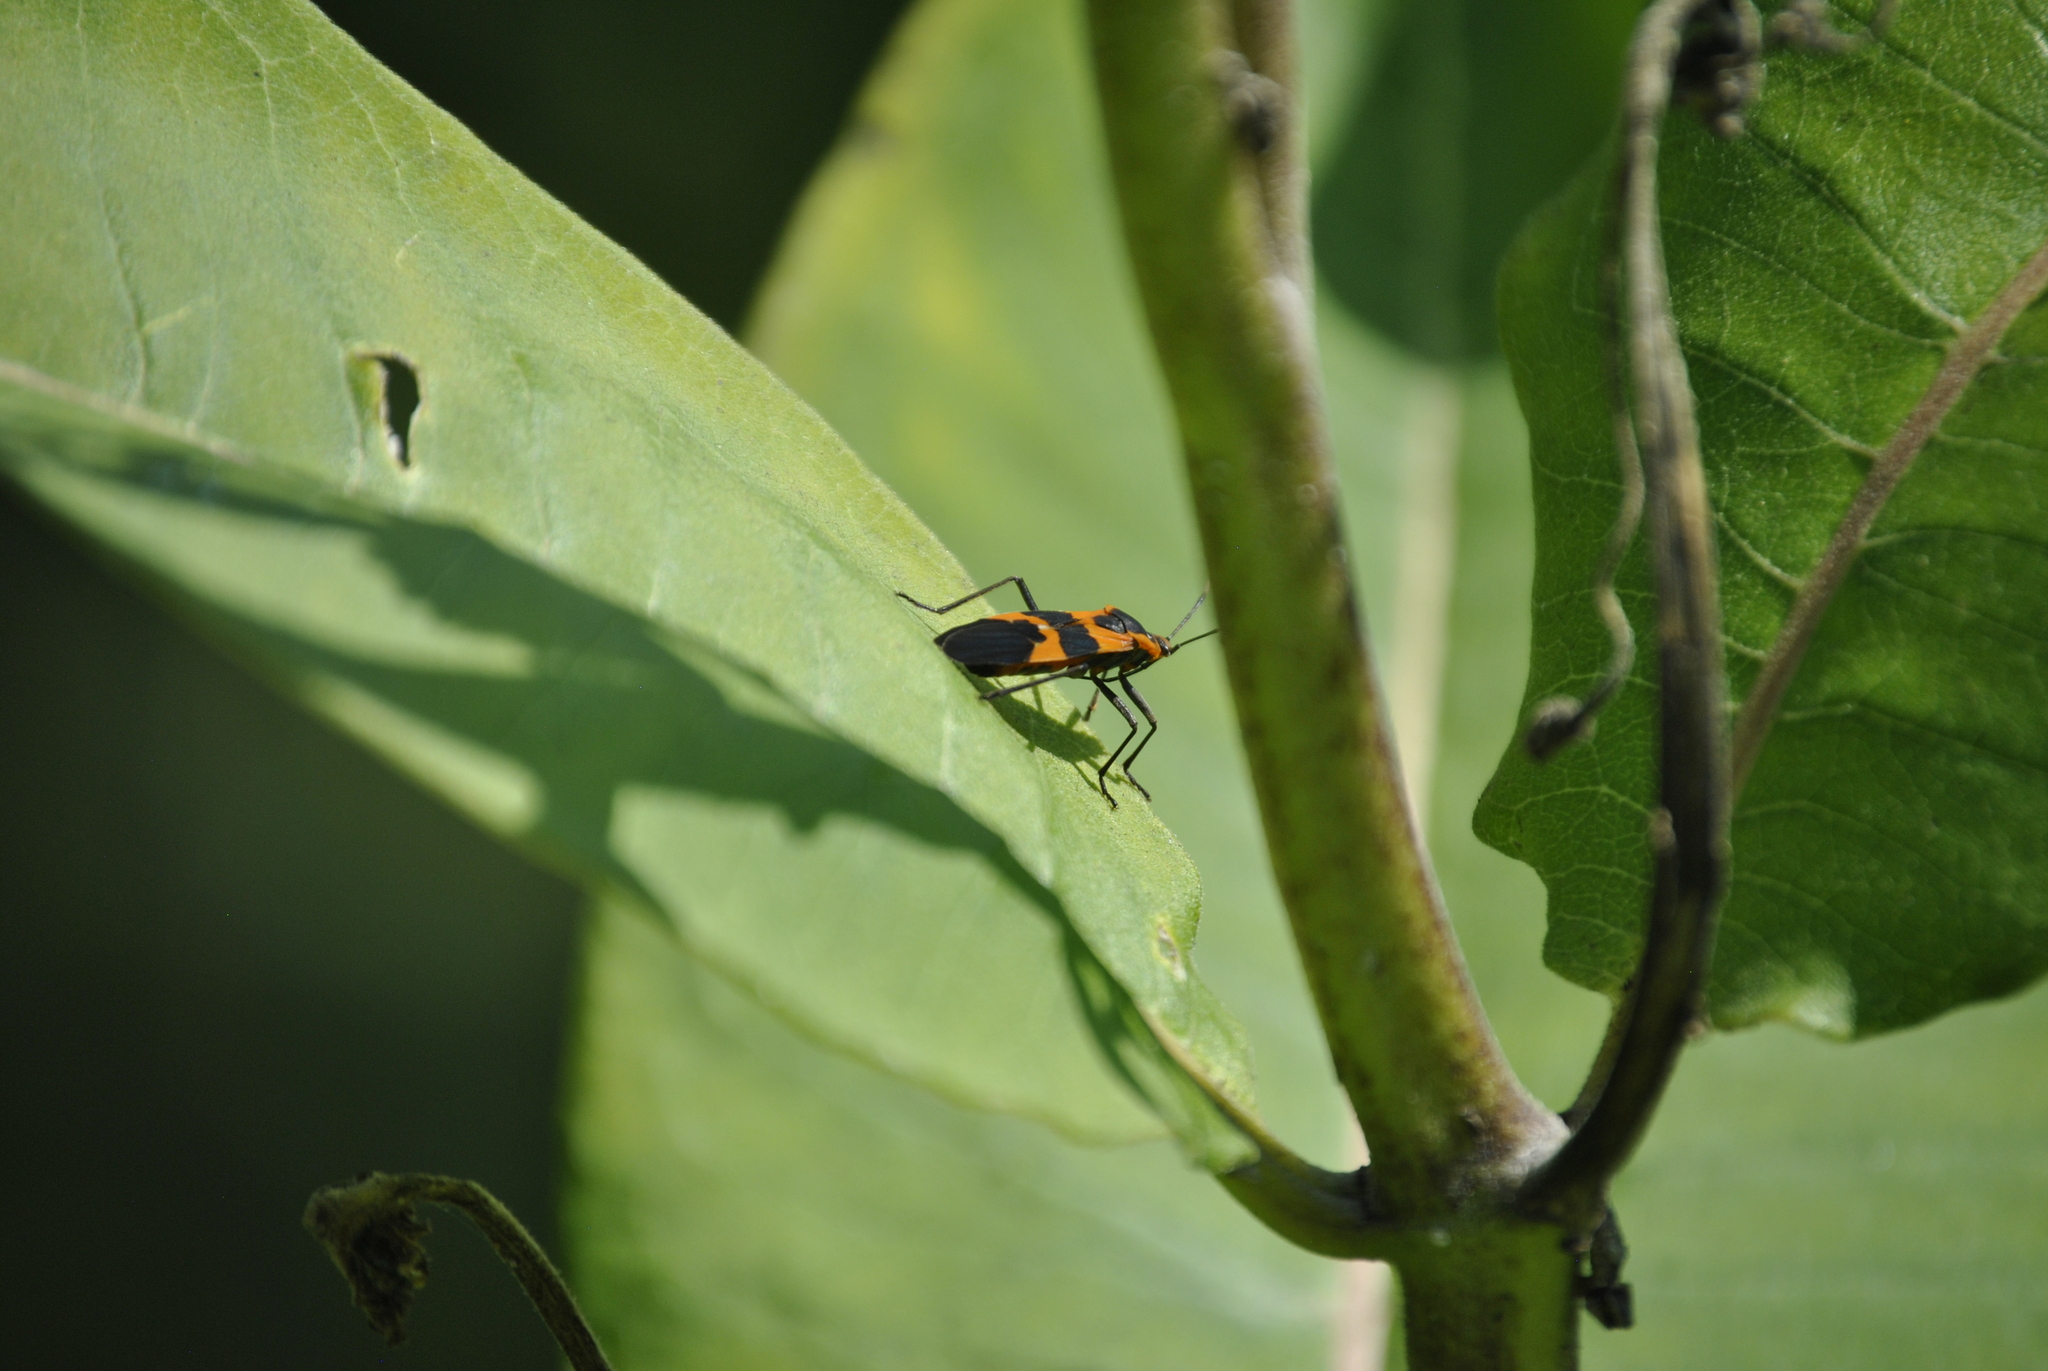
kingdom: Animalia
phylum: Arthropoda
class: Insecta
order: Hemiptera
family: Lygaeidae
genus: Oncopeltus
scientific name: Oncopeltus fasciatus
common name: Large milkweed bug
